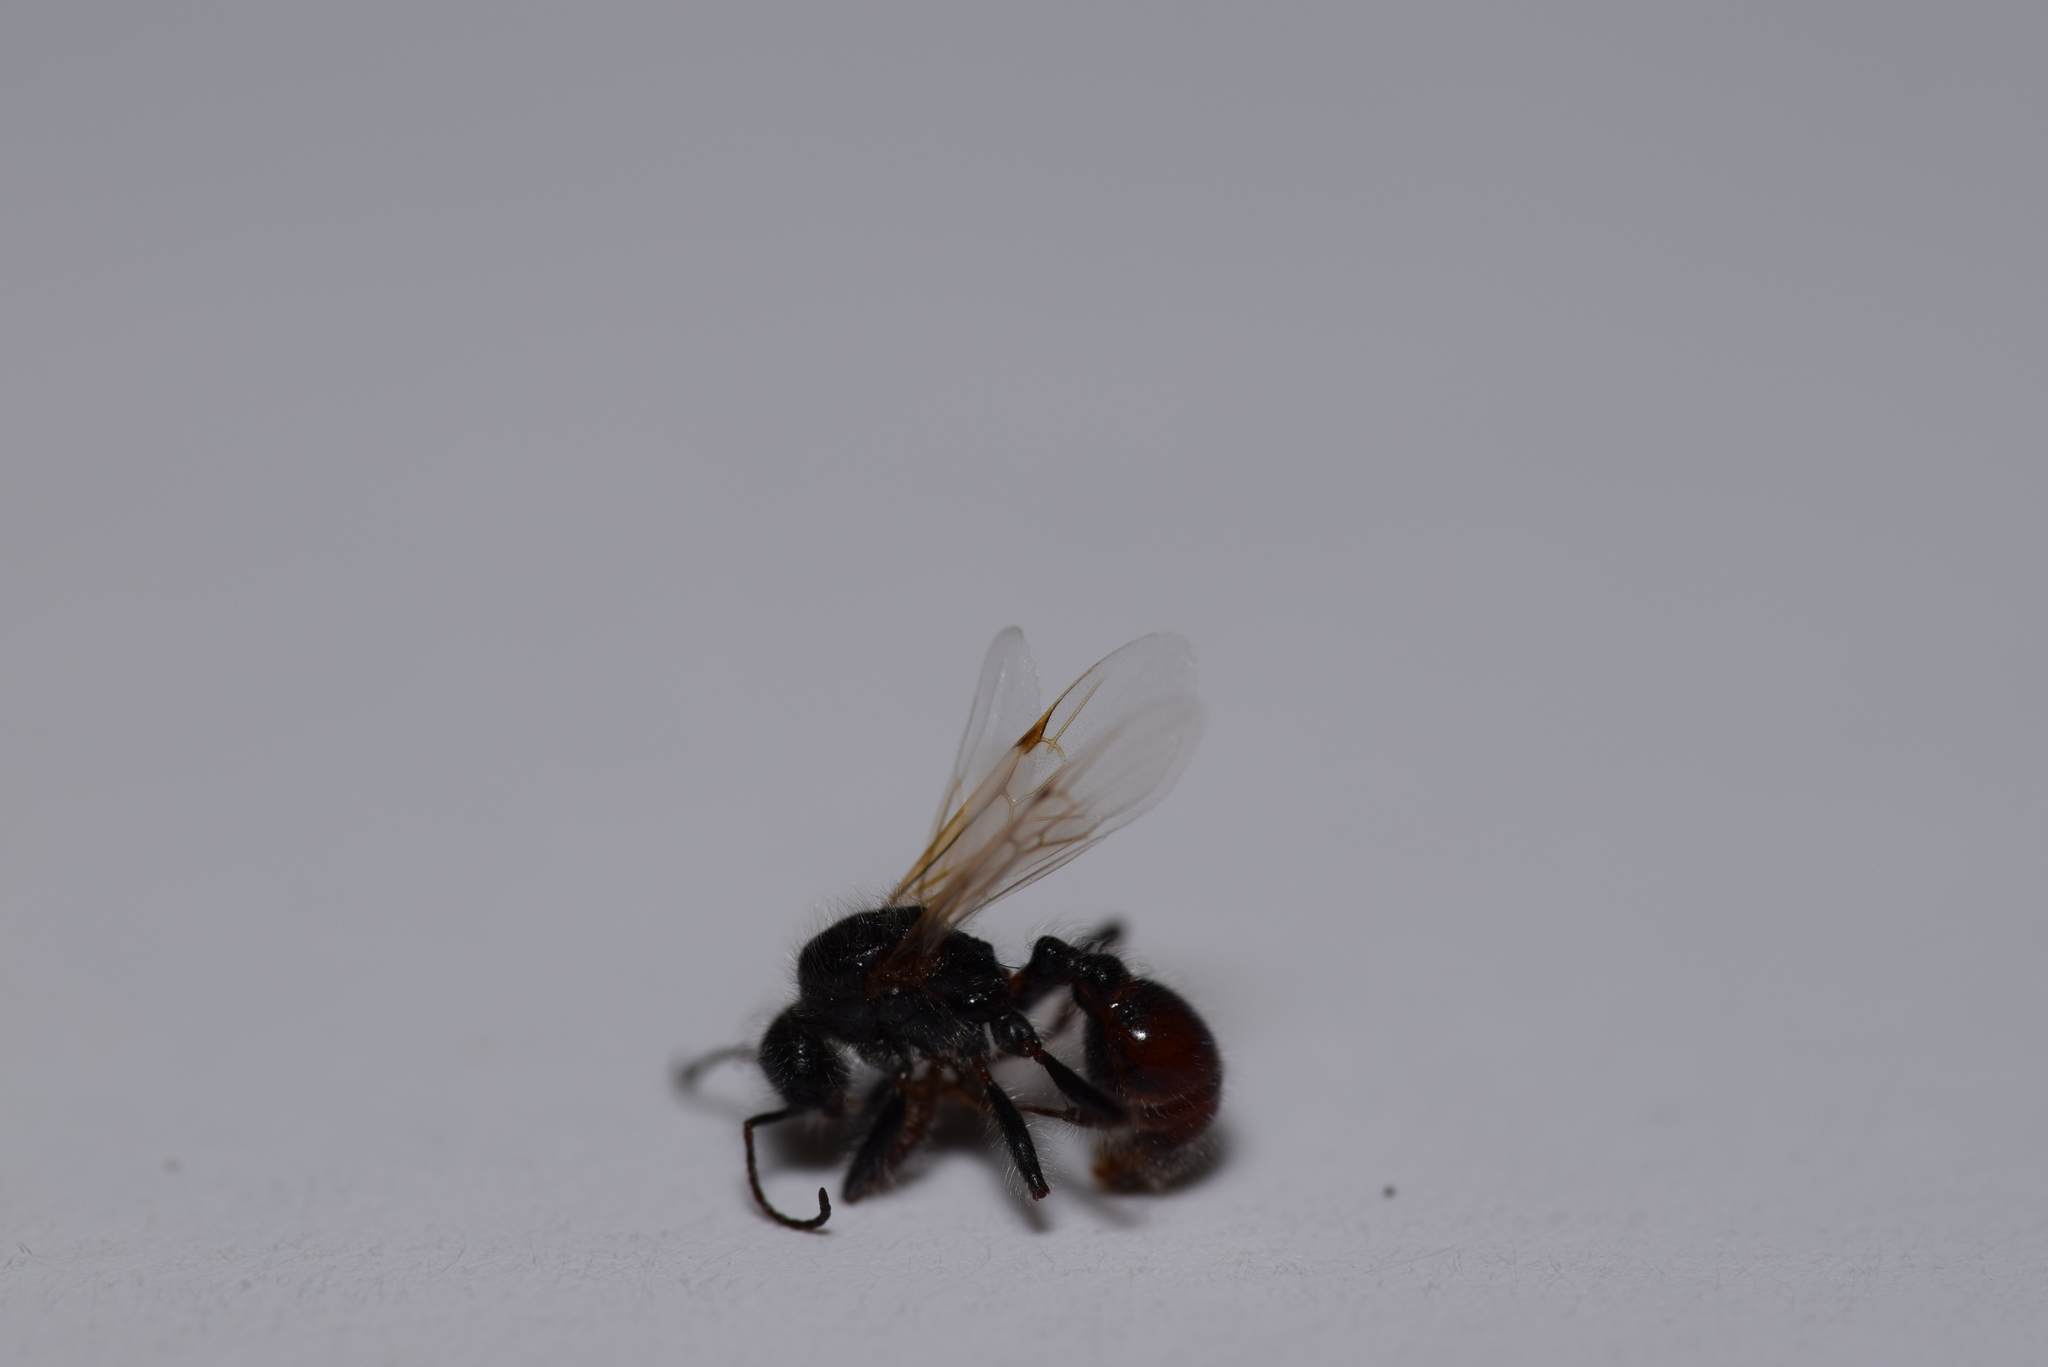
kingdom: Animalia
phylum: Arthropoda
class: Insecta
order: Hymenoptera
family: Formicidae
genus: Pogonomyrmex
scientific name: Pogonomyrmex comanche
